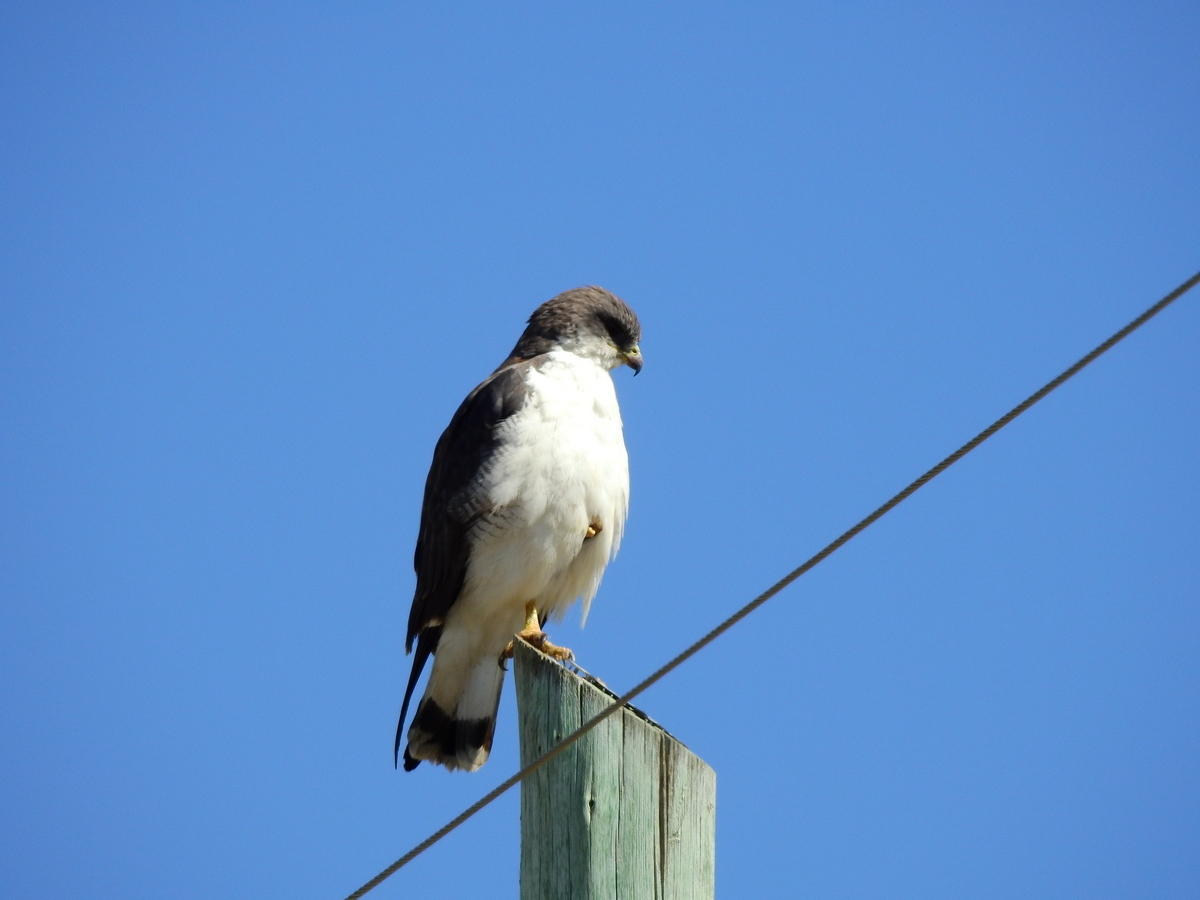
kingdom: Animalia
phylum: Chordata
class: Aves
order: Accipitriformes
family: Accipitridae
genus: Buteo
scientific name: Buteo polyosoma
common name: Variable hawk
